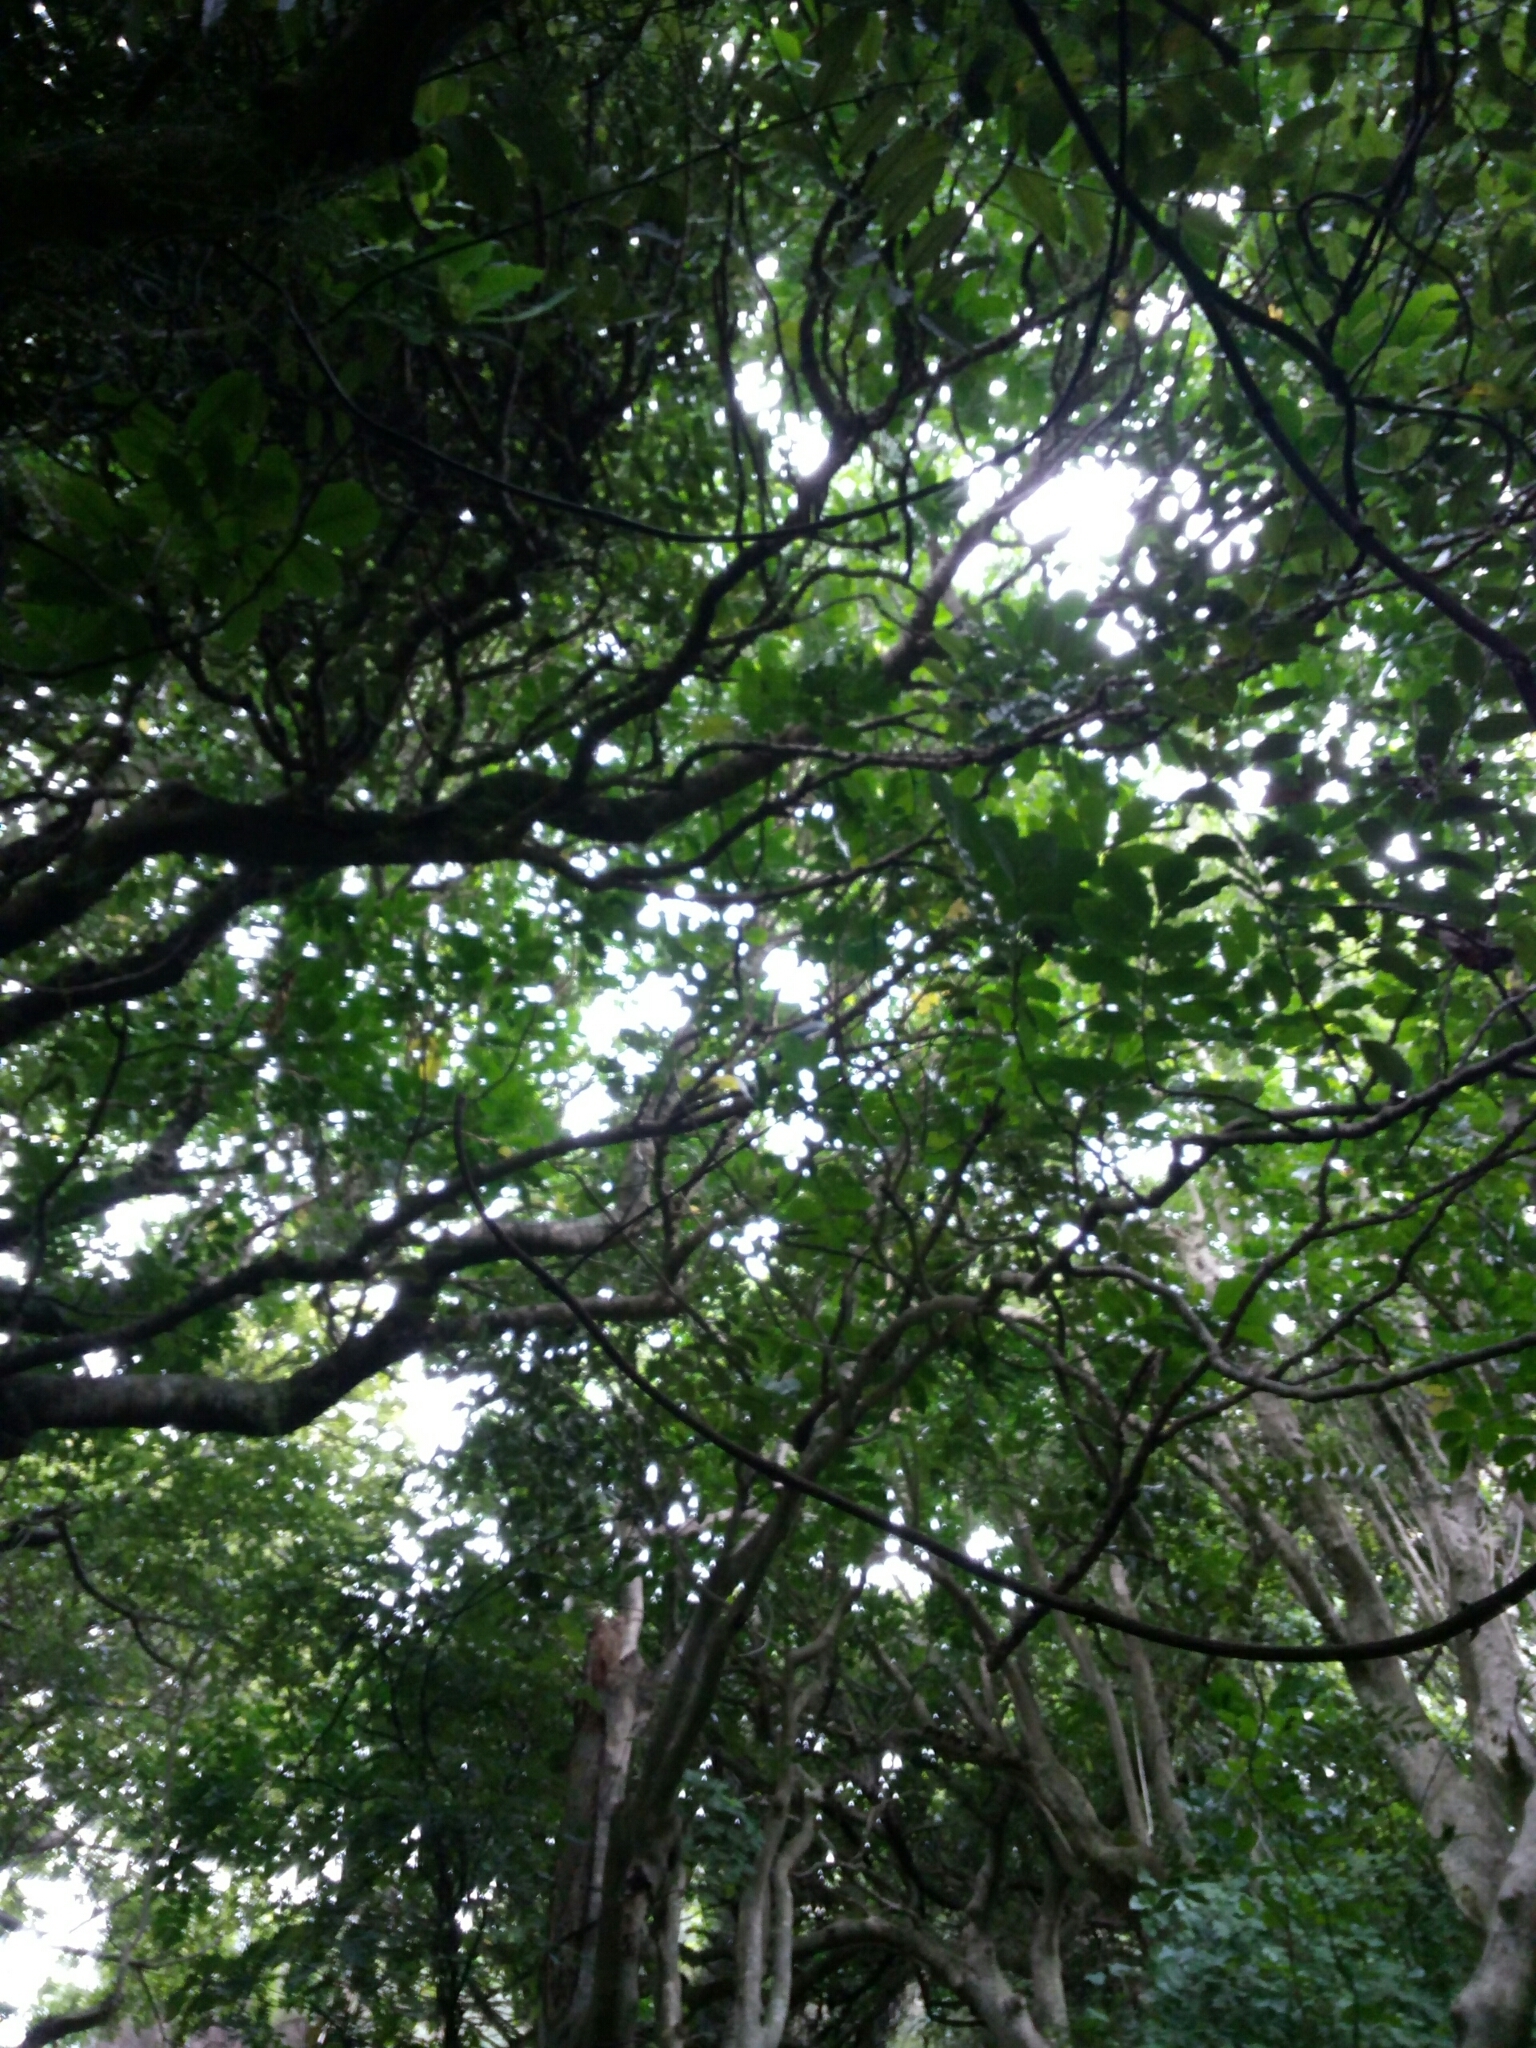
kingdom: Animalia
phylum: Chordata
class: Aves
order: Columbiformes
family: Columbidae
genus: Hemiphaga
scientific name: Hemiphaga novaeseelandiae
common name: New zealand pigeon
